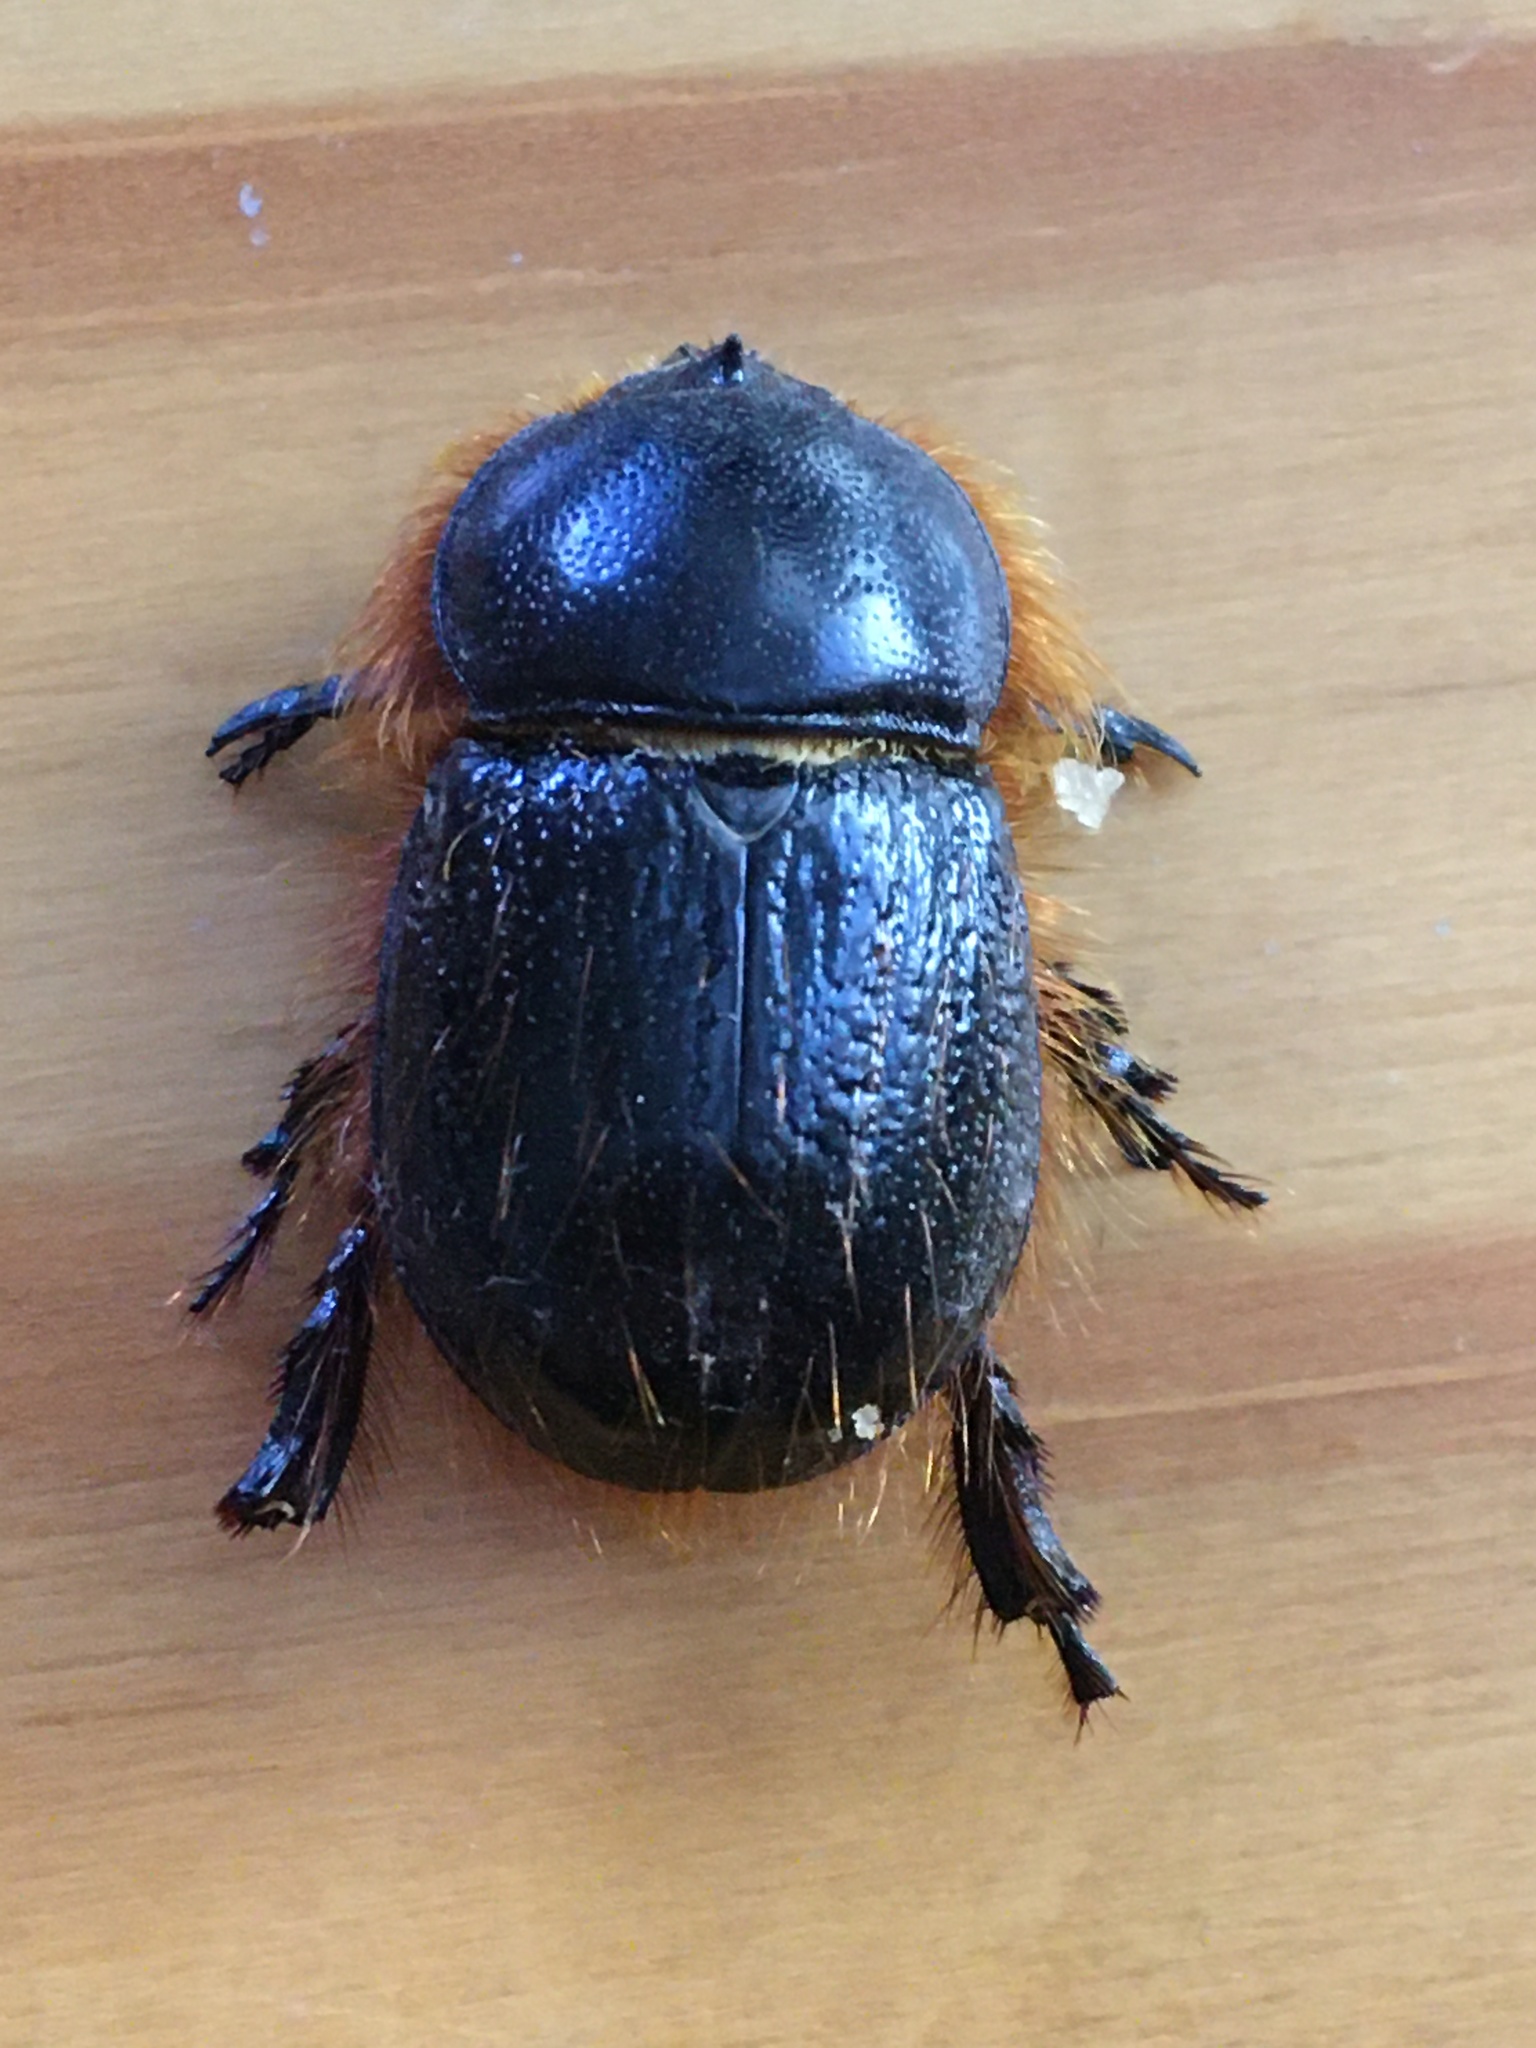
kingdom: Animalia
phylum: Arthropoda
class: Insecta
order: Coleoptera
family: Scarabaeidae
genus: Kirprellius
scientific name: Kirprellius syrichtus
